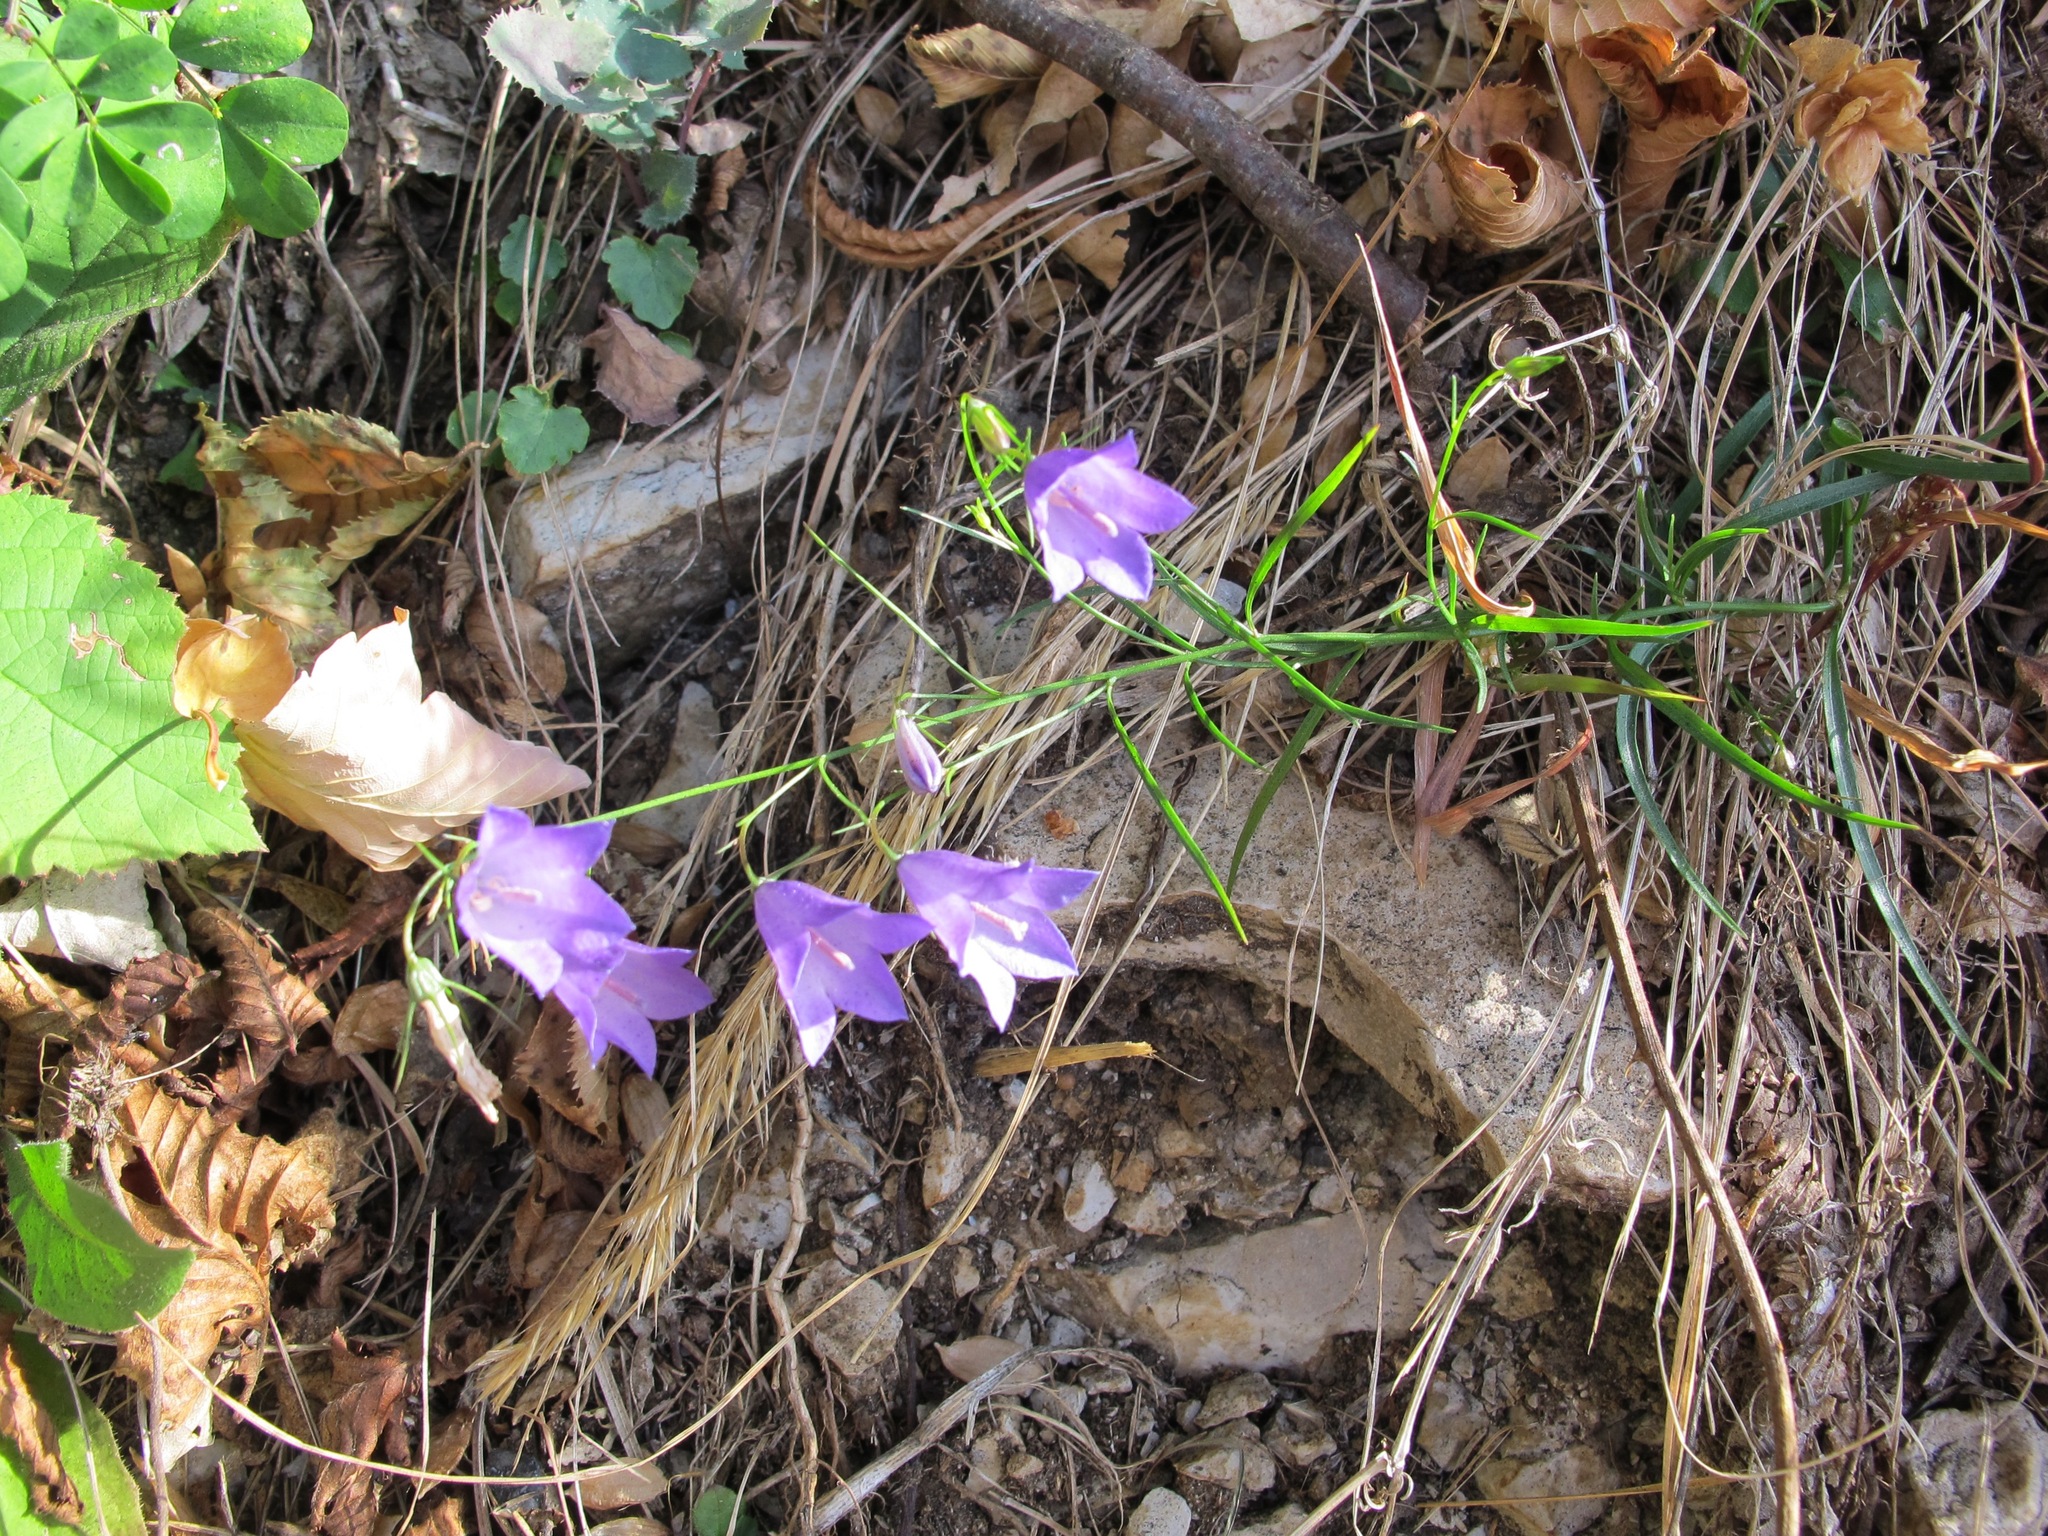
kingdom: Plantae
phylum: Tracheophyta
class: Magnoliopsida
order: Asterales
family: Campanulaceae
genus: Campanula
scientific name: Campanula rotundifolia
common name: Harebell
